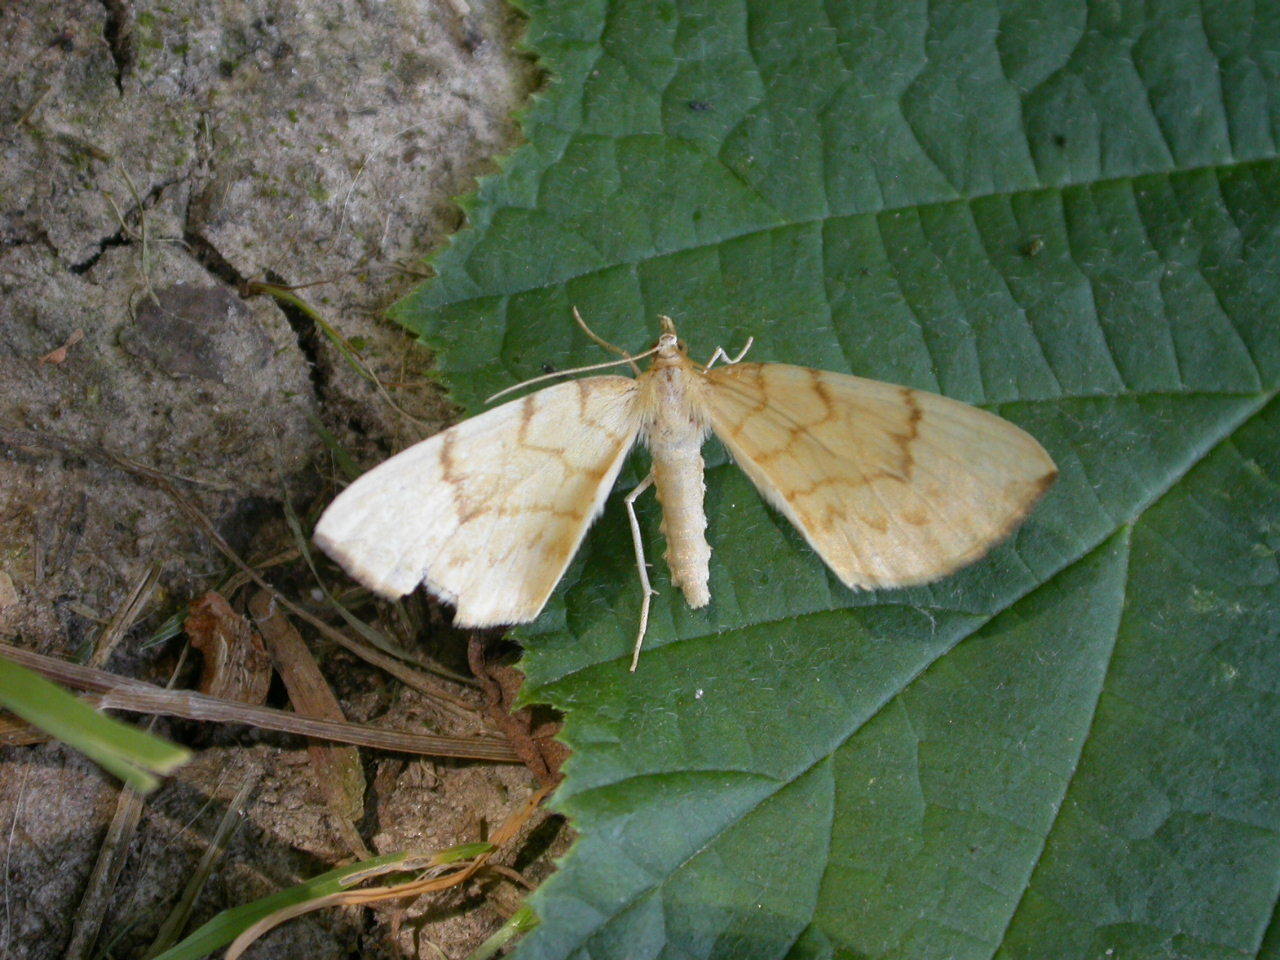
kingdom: Animalia
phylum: Arthropoda
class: Insecta
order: Lepidoptera
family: Geometridae
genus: Eulithis
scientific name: Eulithis pyraliata
